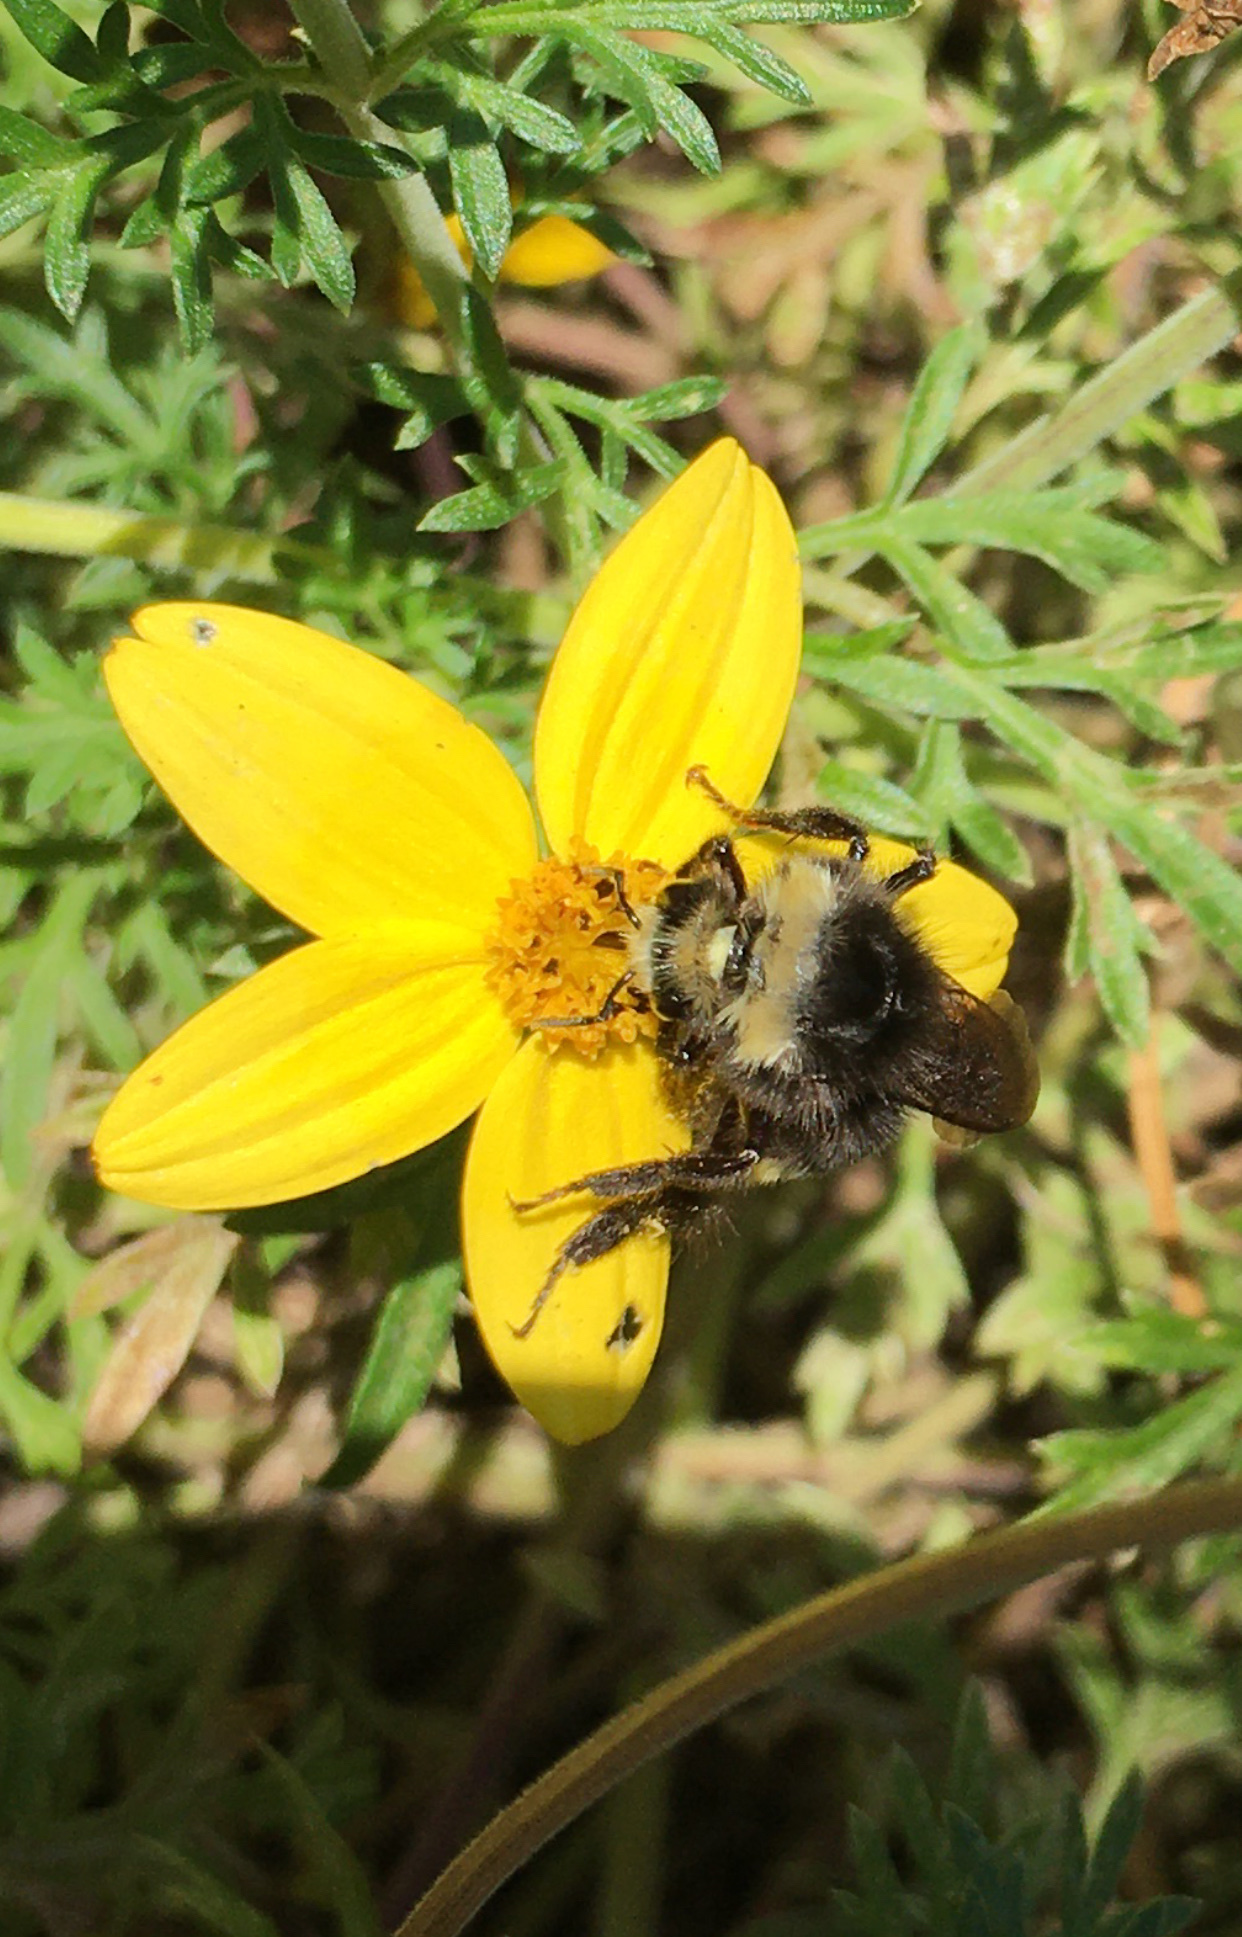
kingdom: Animalia
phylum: Arthropoda
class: Insecta
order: Hymenoptera
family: Apidae
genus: Pyrobombus
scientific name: Pyrobombus
